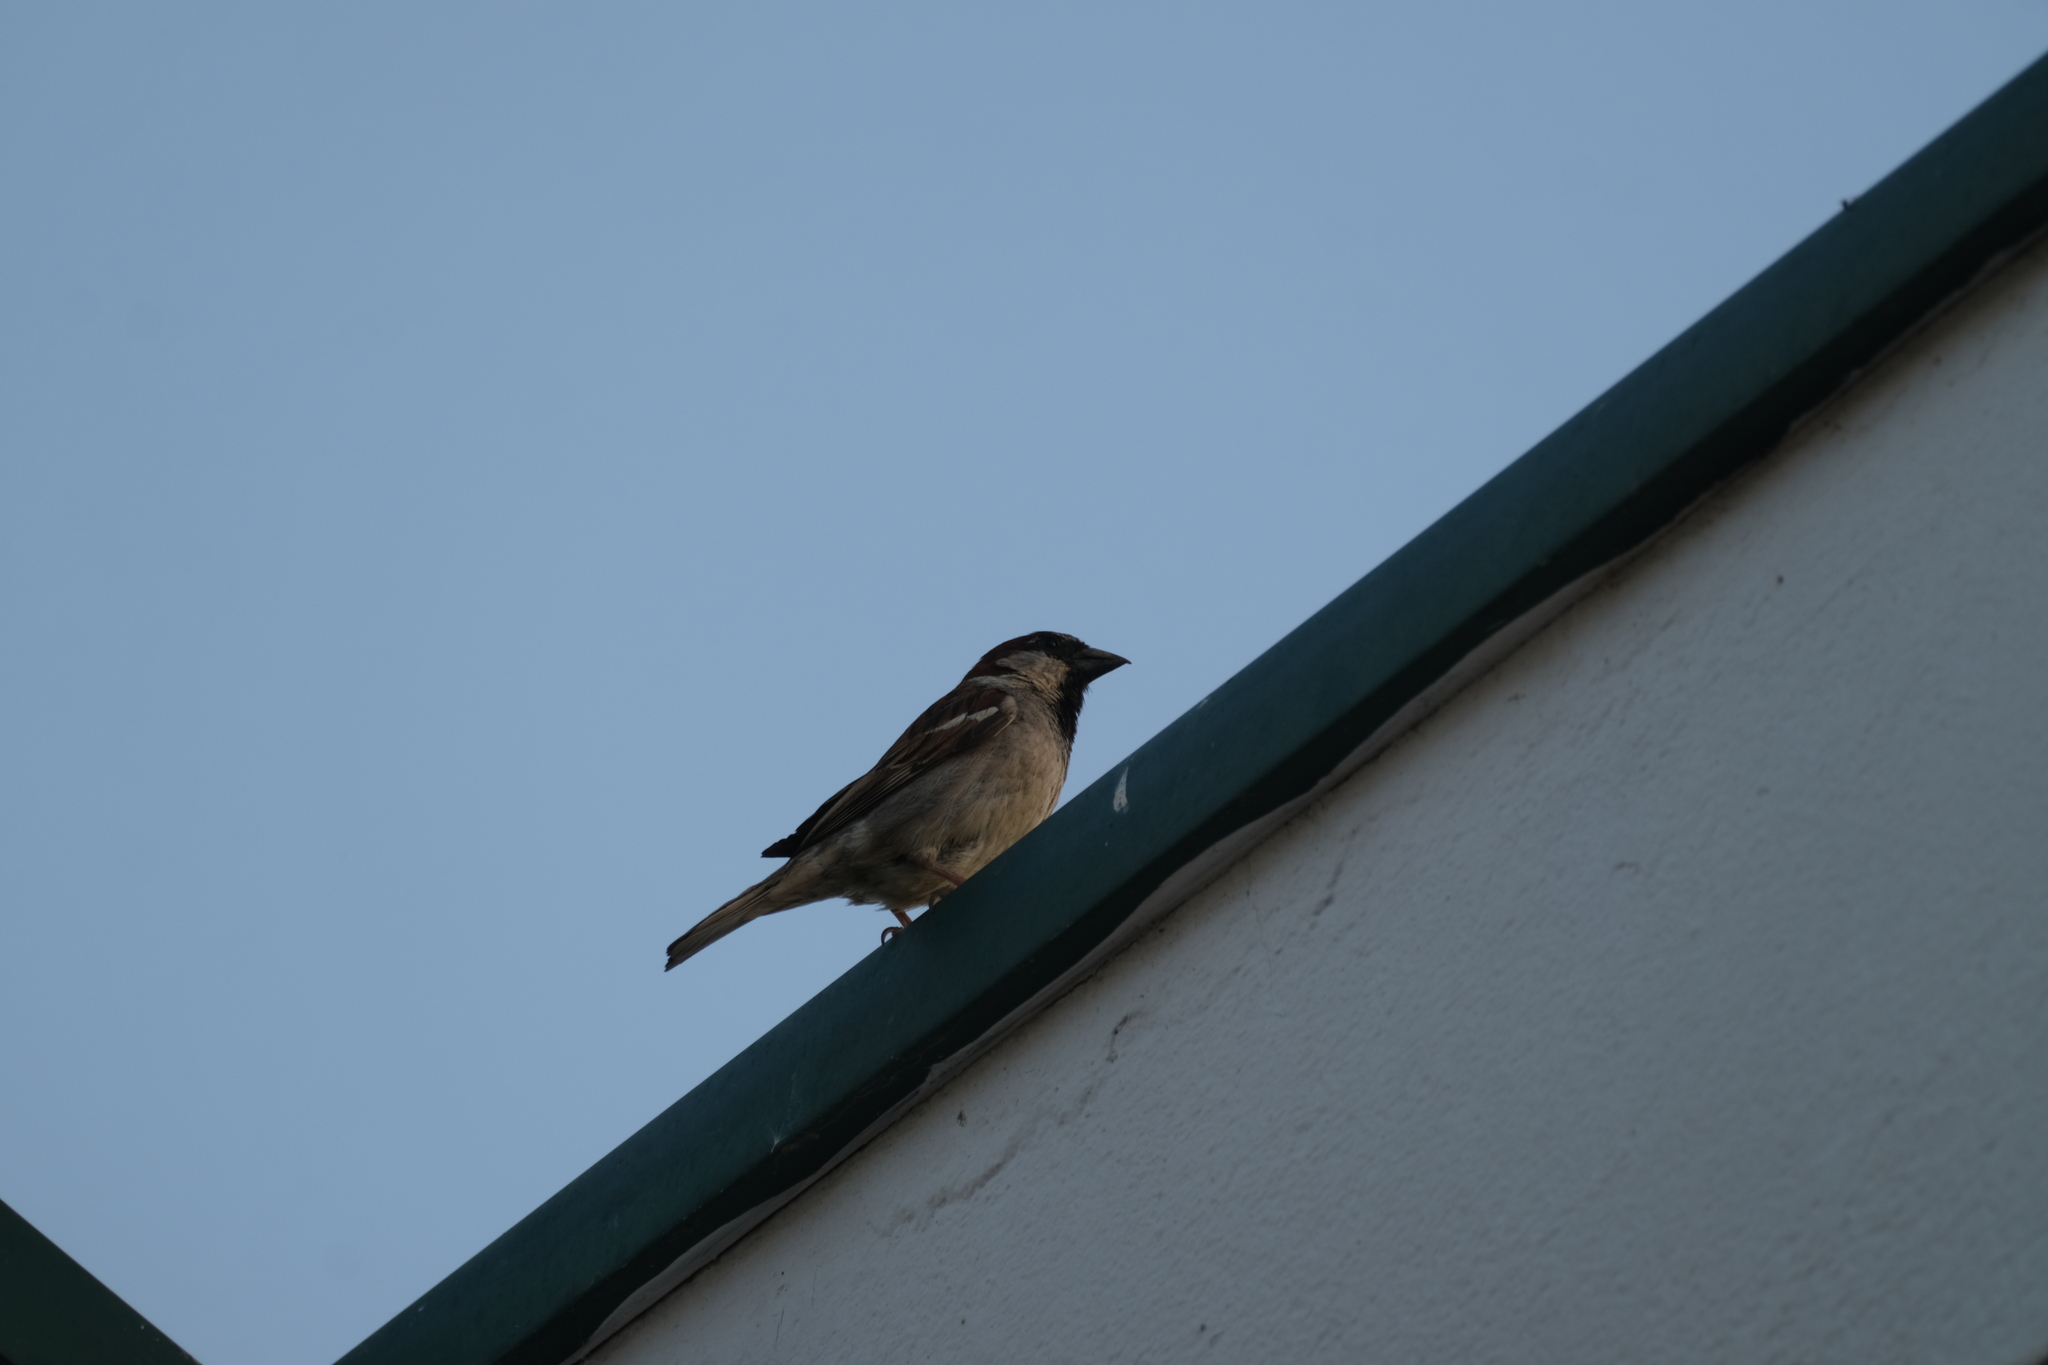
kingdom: Animalia
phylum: Chordata
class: Aves
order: Passeriformes
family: Passeridae
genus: Passer
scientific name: Passer domesticus
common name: House sparrow
